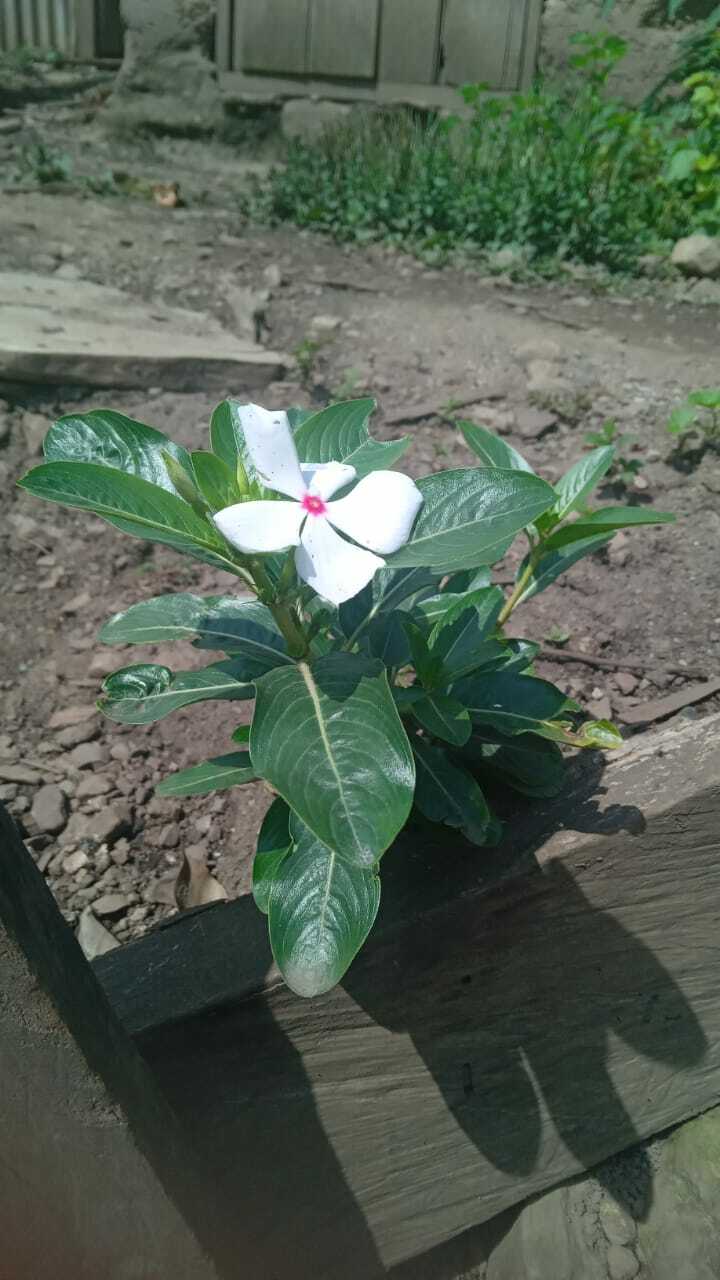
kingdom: Plantae
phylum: Tracheophyta
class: Magnoliopsida
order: Gentianales
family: Apocynaceae
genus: Catharanthus
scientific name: Catharanthus roseus
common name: Madagascar periwinkle
